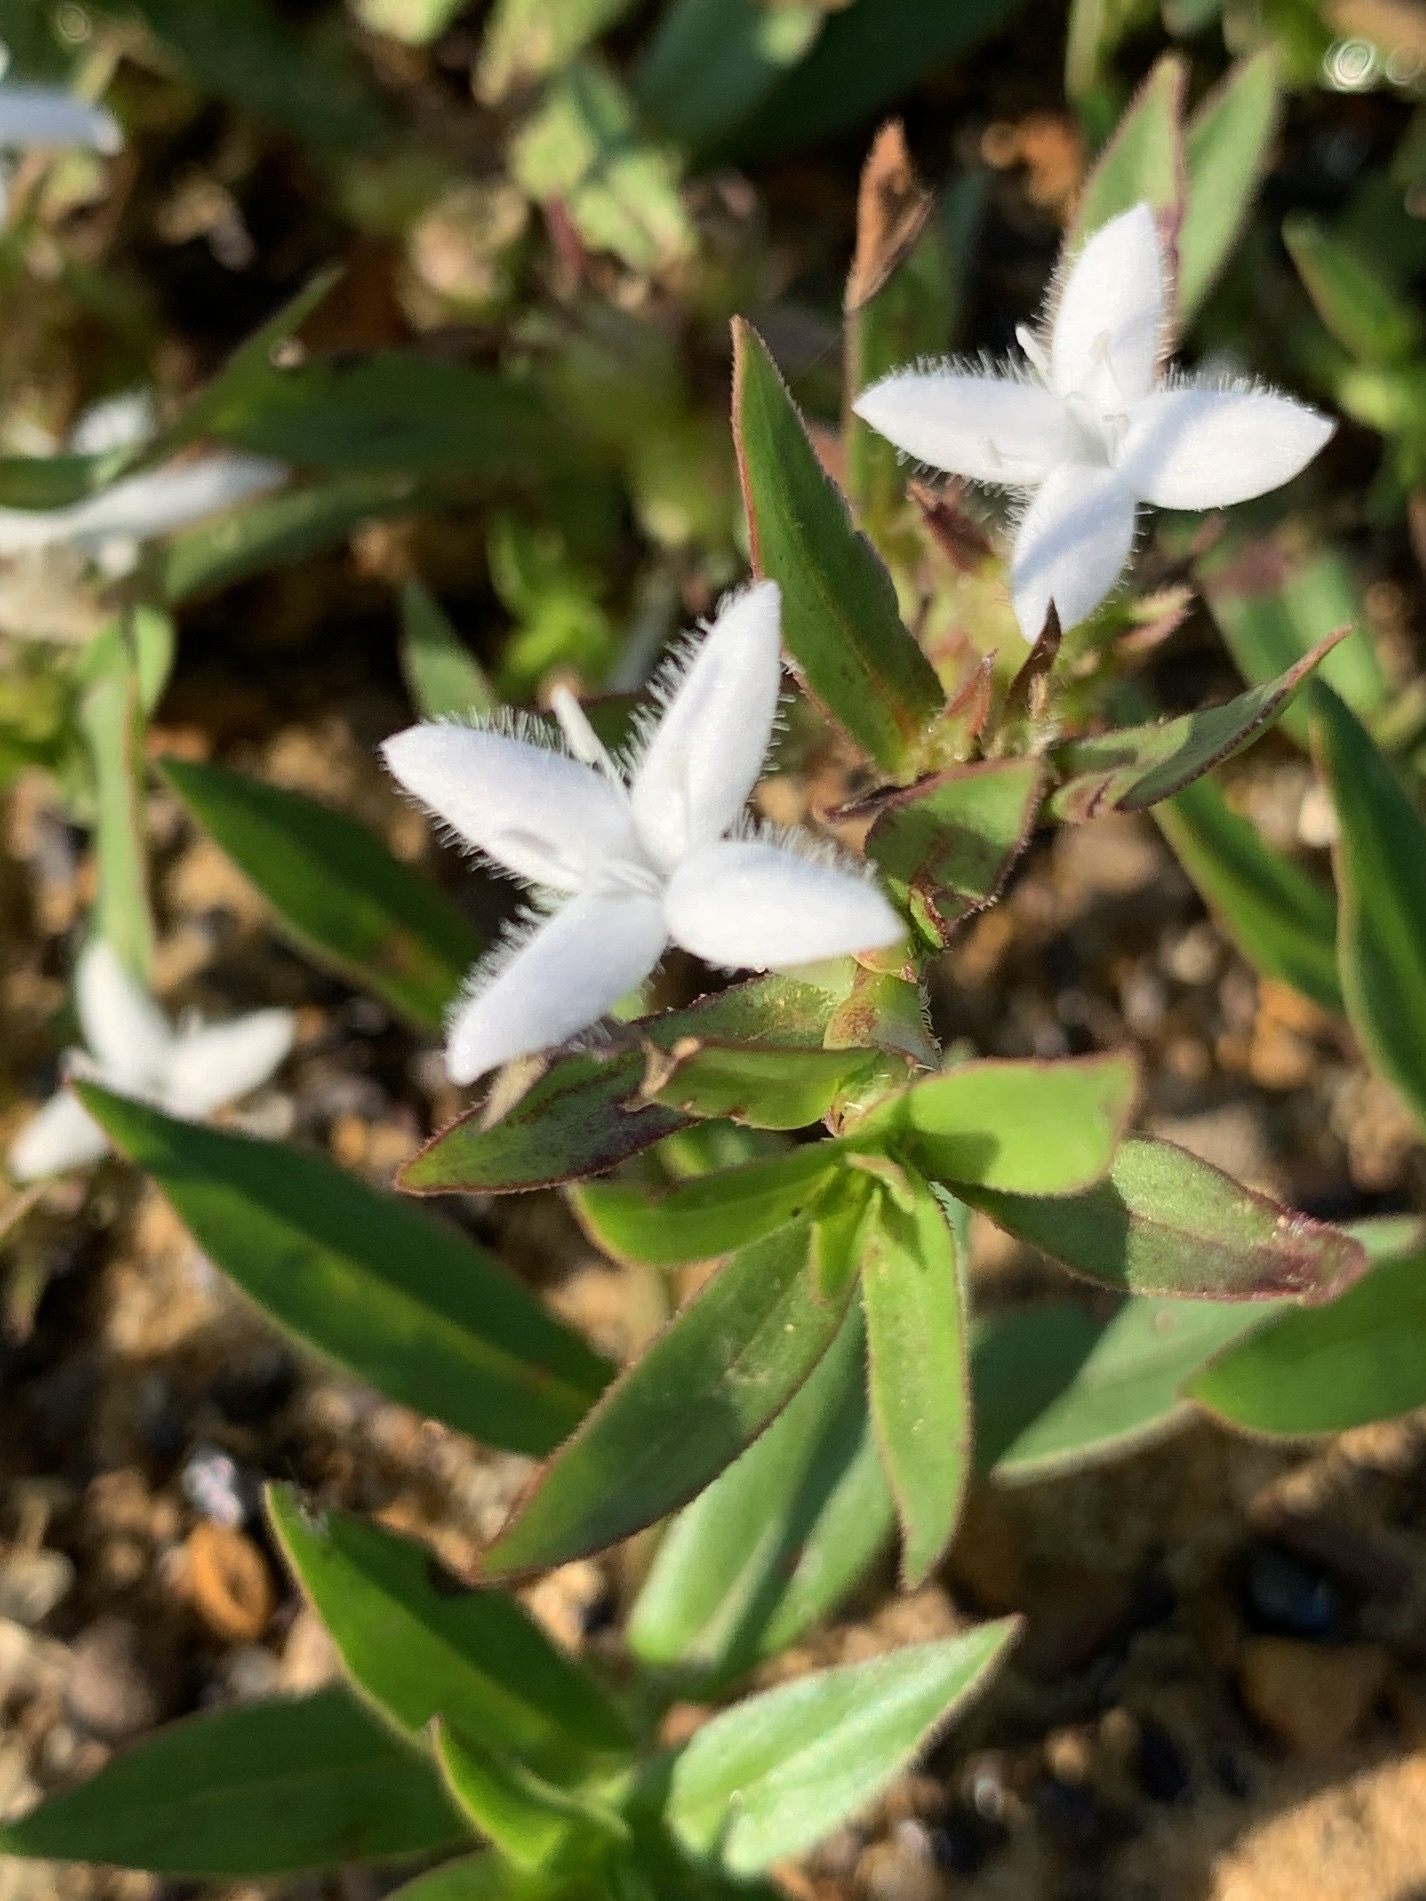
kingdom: Plantae
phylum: Tracheophyta
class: Magnoliopsida
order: Gentianales
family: Rubiaceae
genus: Diodia
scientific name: Diodia virginiana
